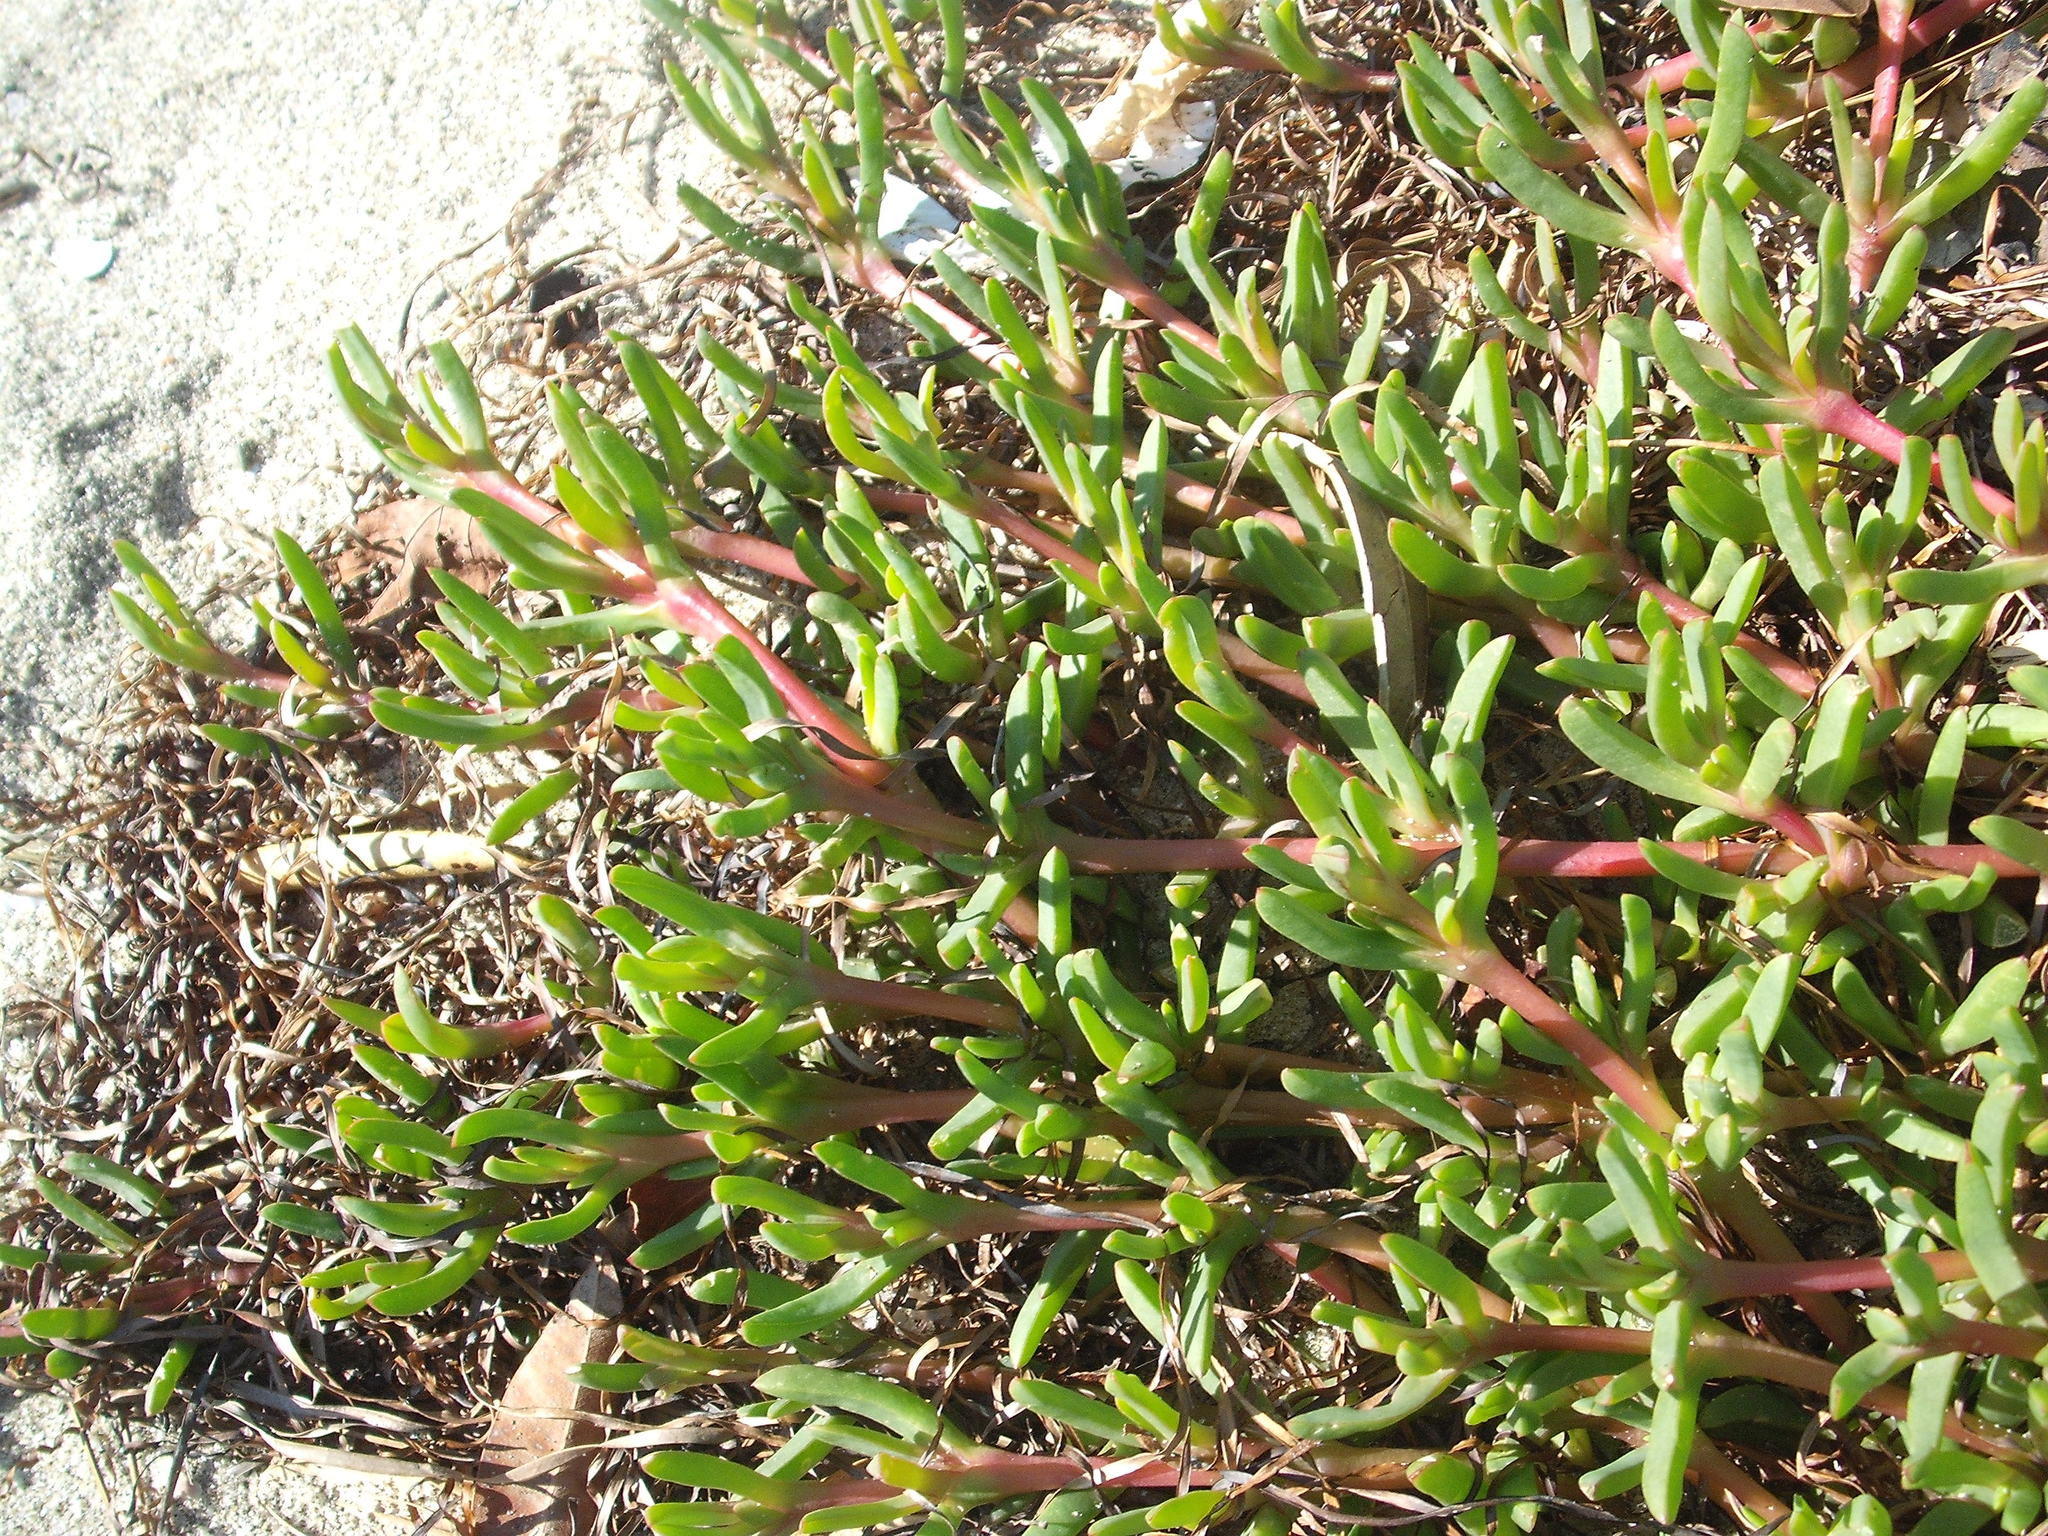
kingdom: Plantae
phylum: Tracheophyta
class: Magnoliopsida
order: Caryophyllales
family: Aizoaceae
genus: Disphyma
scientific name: Disphyma australe
